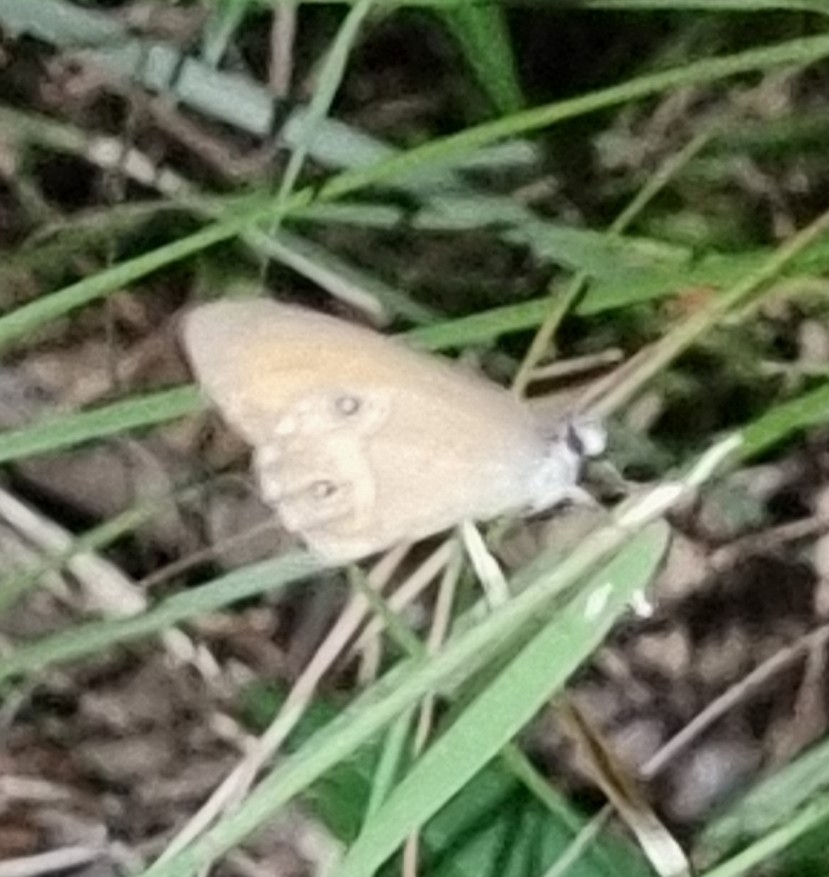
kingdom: Animalia
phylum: Arthropoda
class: Insecta
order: Lepidoptera
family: Nymphalidae
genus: Hypocysta
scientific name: Hypocysta adiante
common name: Orange ringlet
